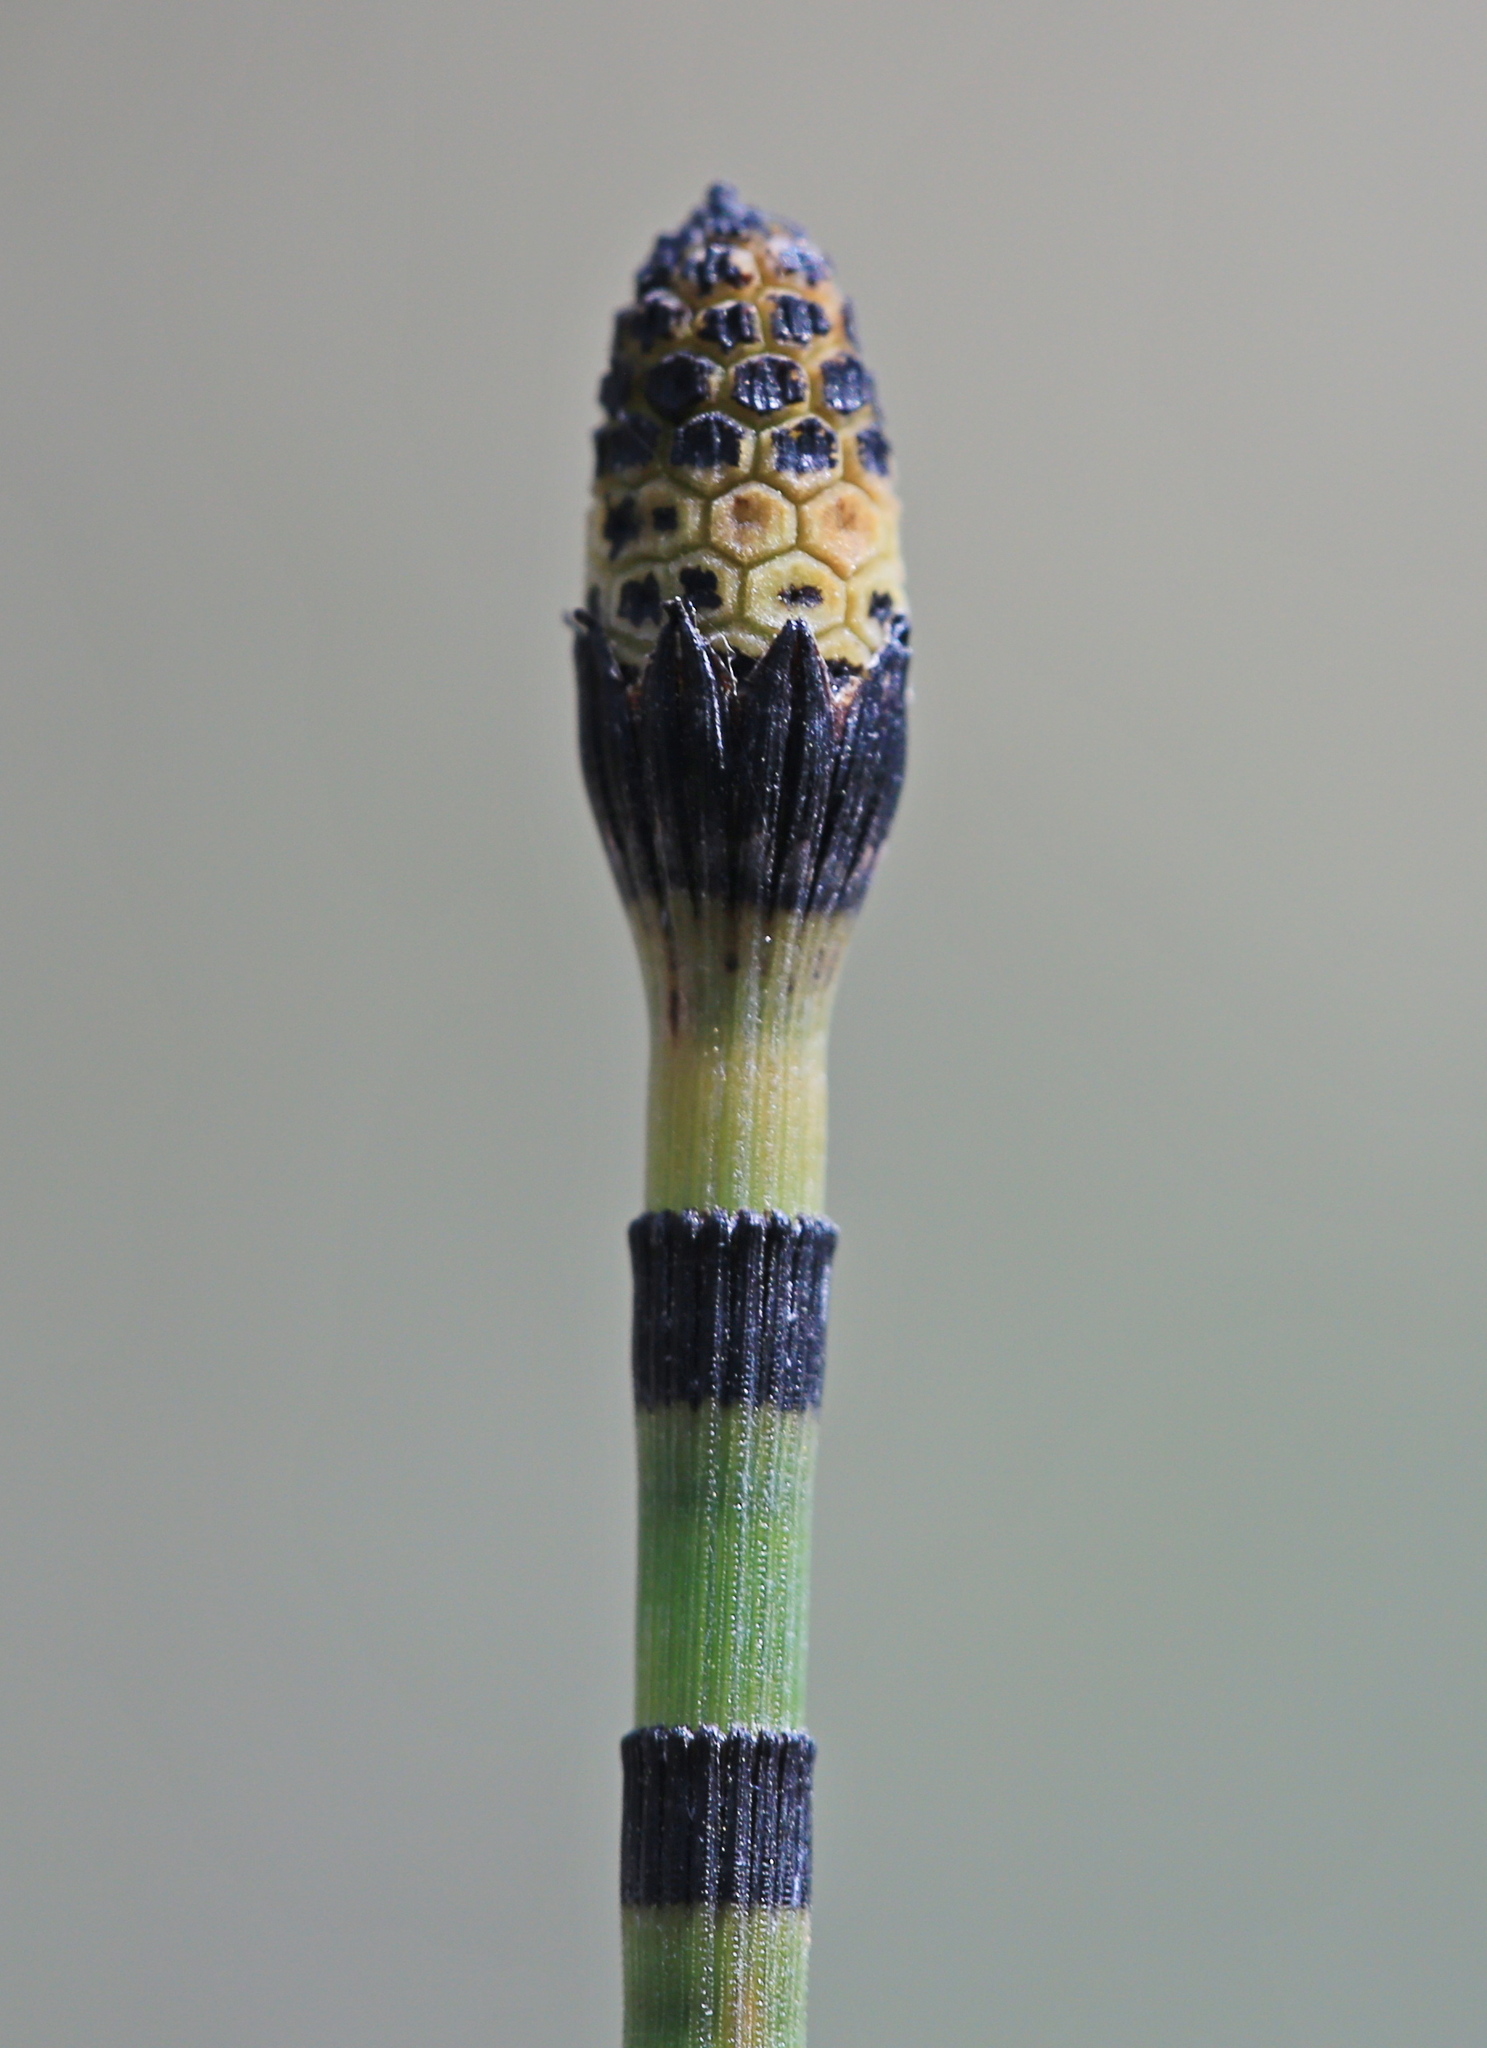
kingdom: Plantae
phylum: Tracheophyta
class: Polypodiopsida
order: Equisetales
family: Equisetaceae
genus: Equisetum
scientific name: Equisetum hyemale
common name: Rough horsetail
